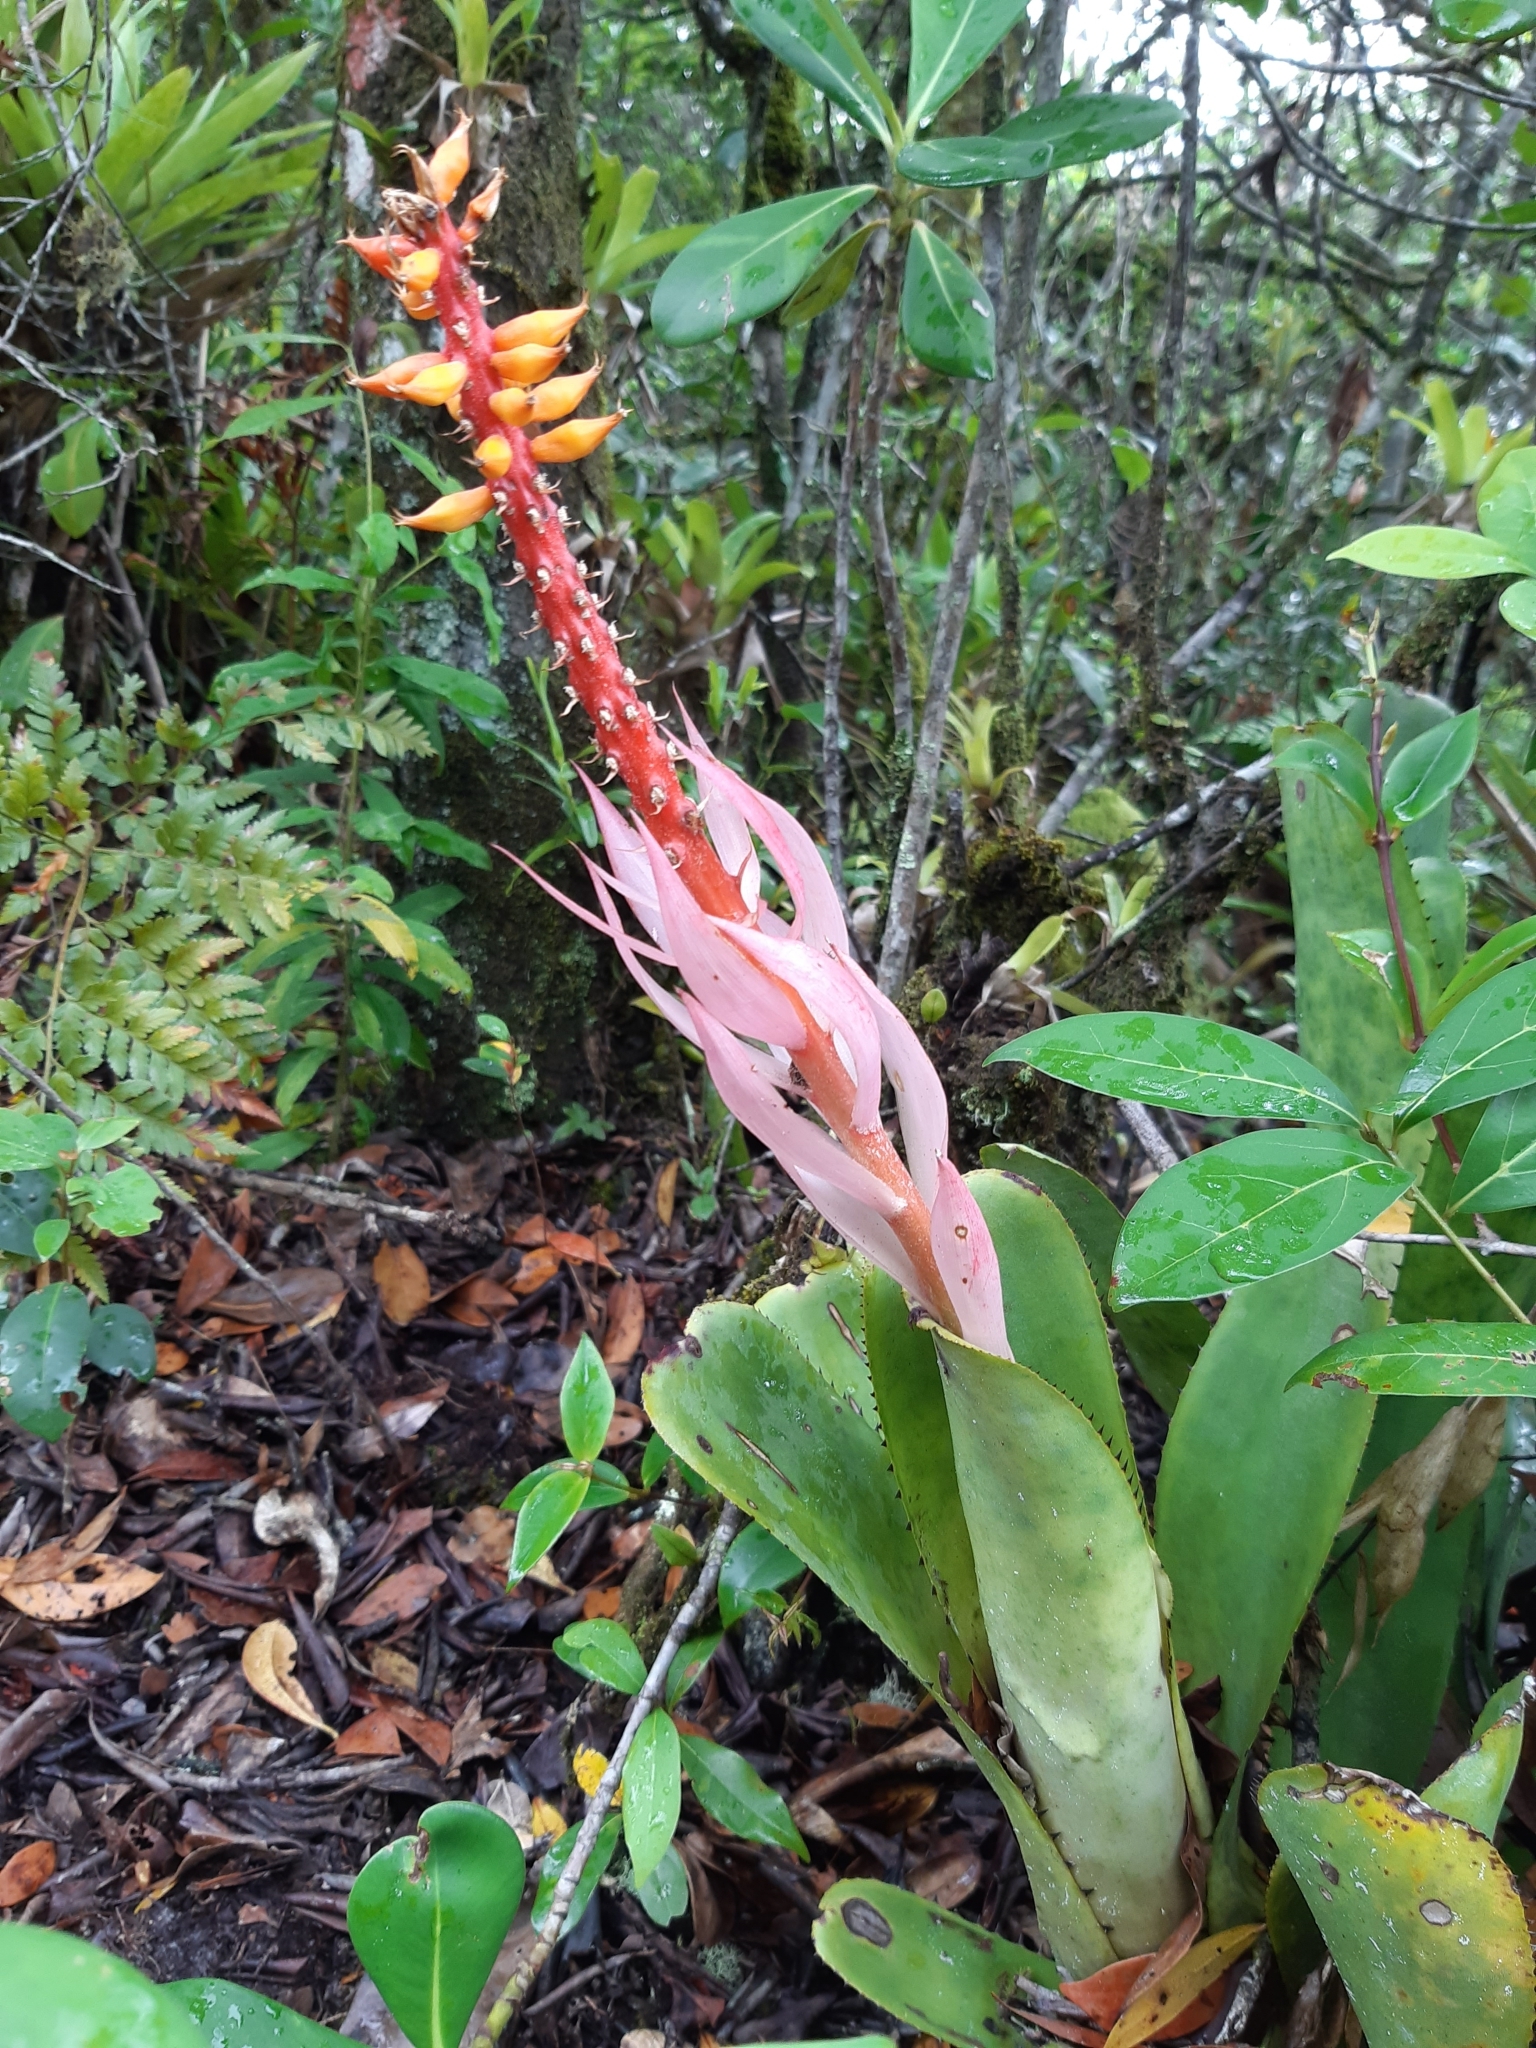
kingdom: Plantae
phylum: Tracheophyta
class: Liliopsida
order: Poales
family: Bromeliaceae
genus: Aechmea
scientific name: Aechmea nudicaulis
